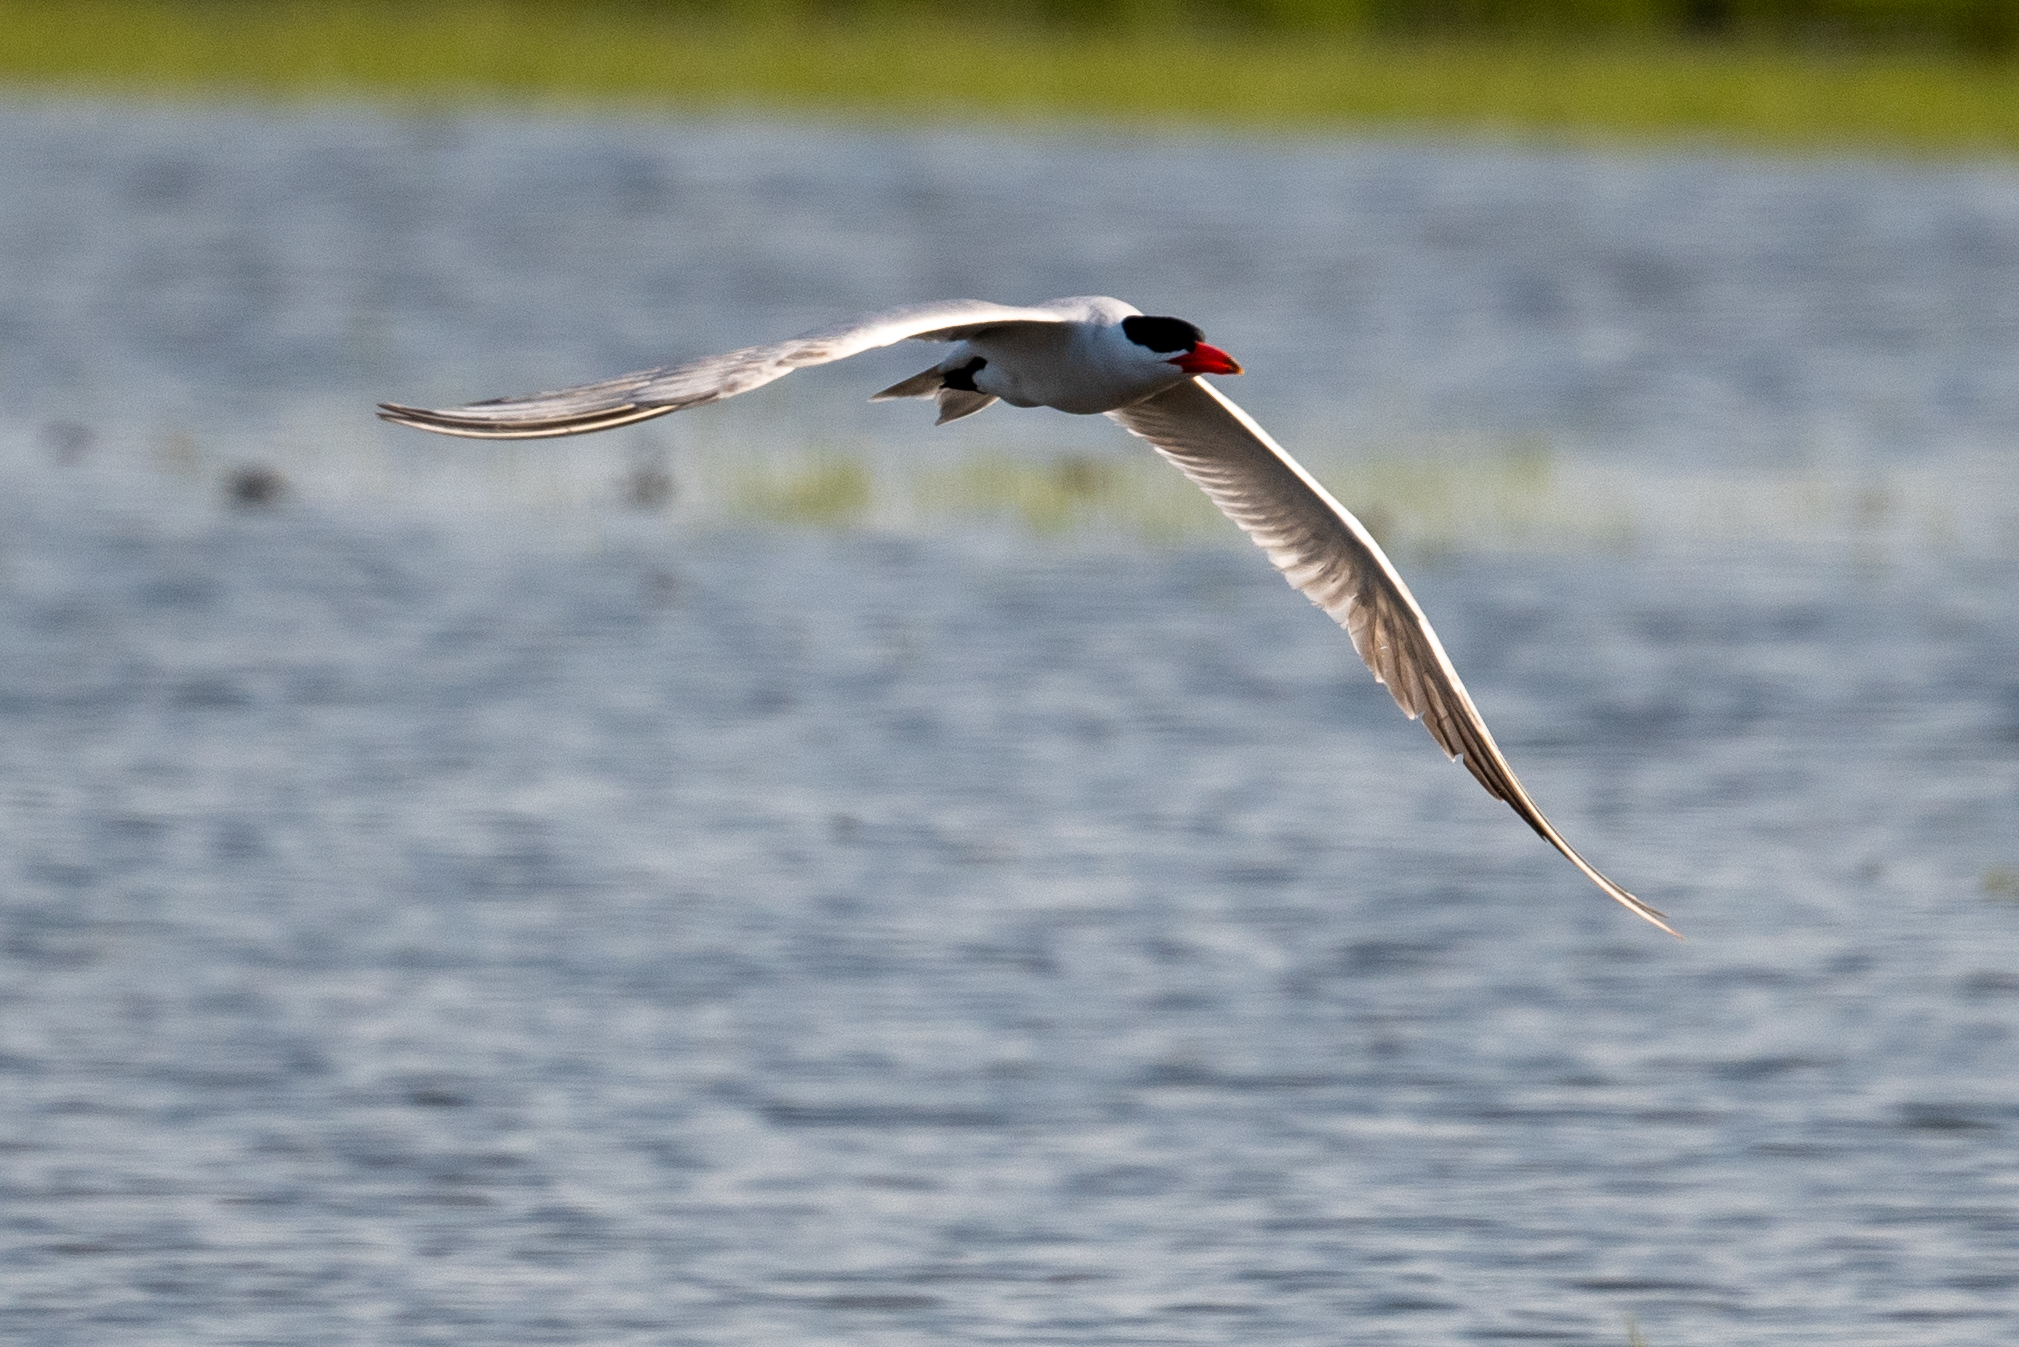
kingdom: Animalia
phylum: Chordata
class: Aves
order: Charadriiformes
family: Laridae
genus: Hydroprogne
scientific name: Hydroprogne caspia
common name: Caspian tern
